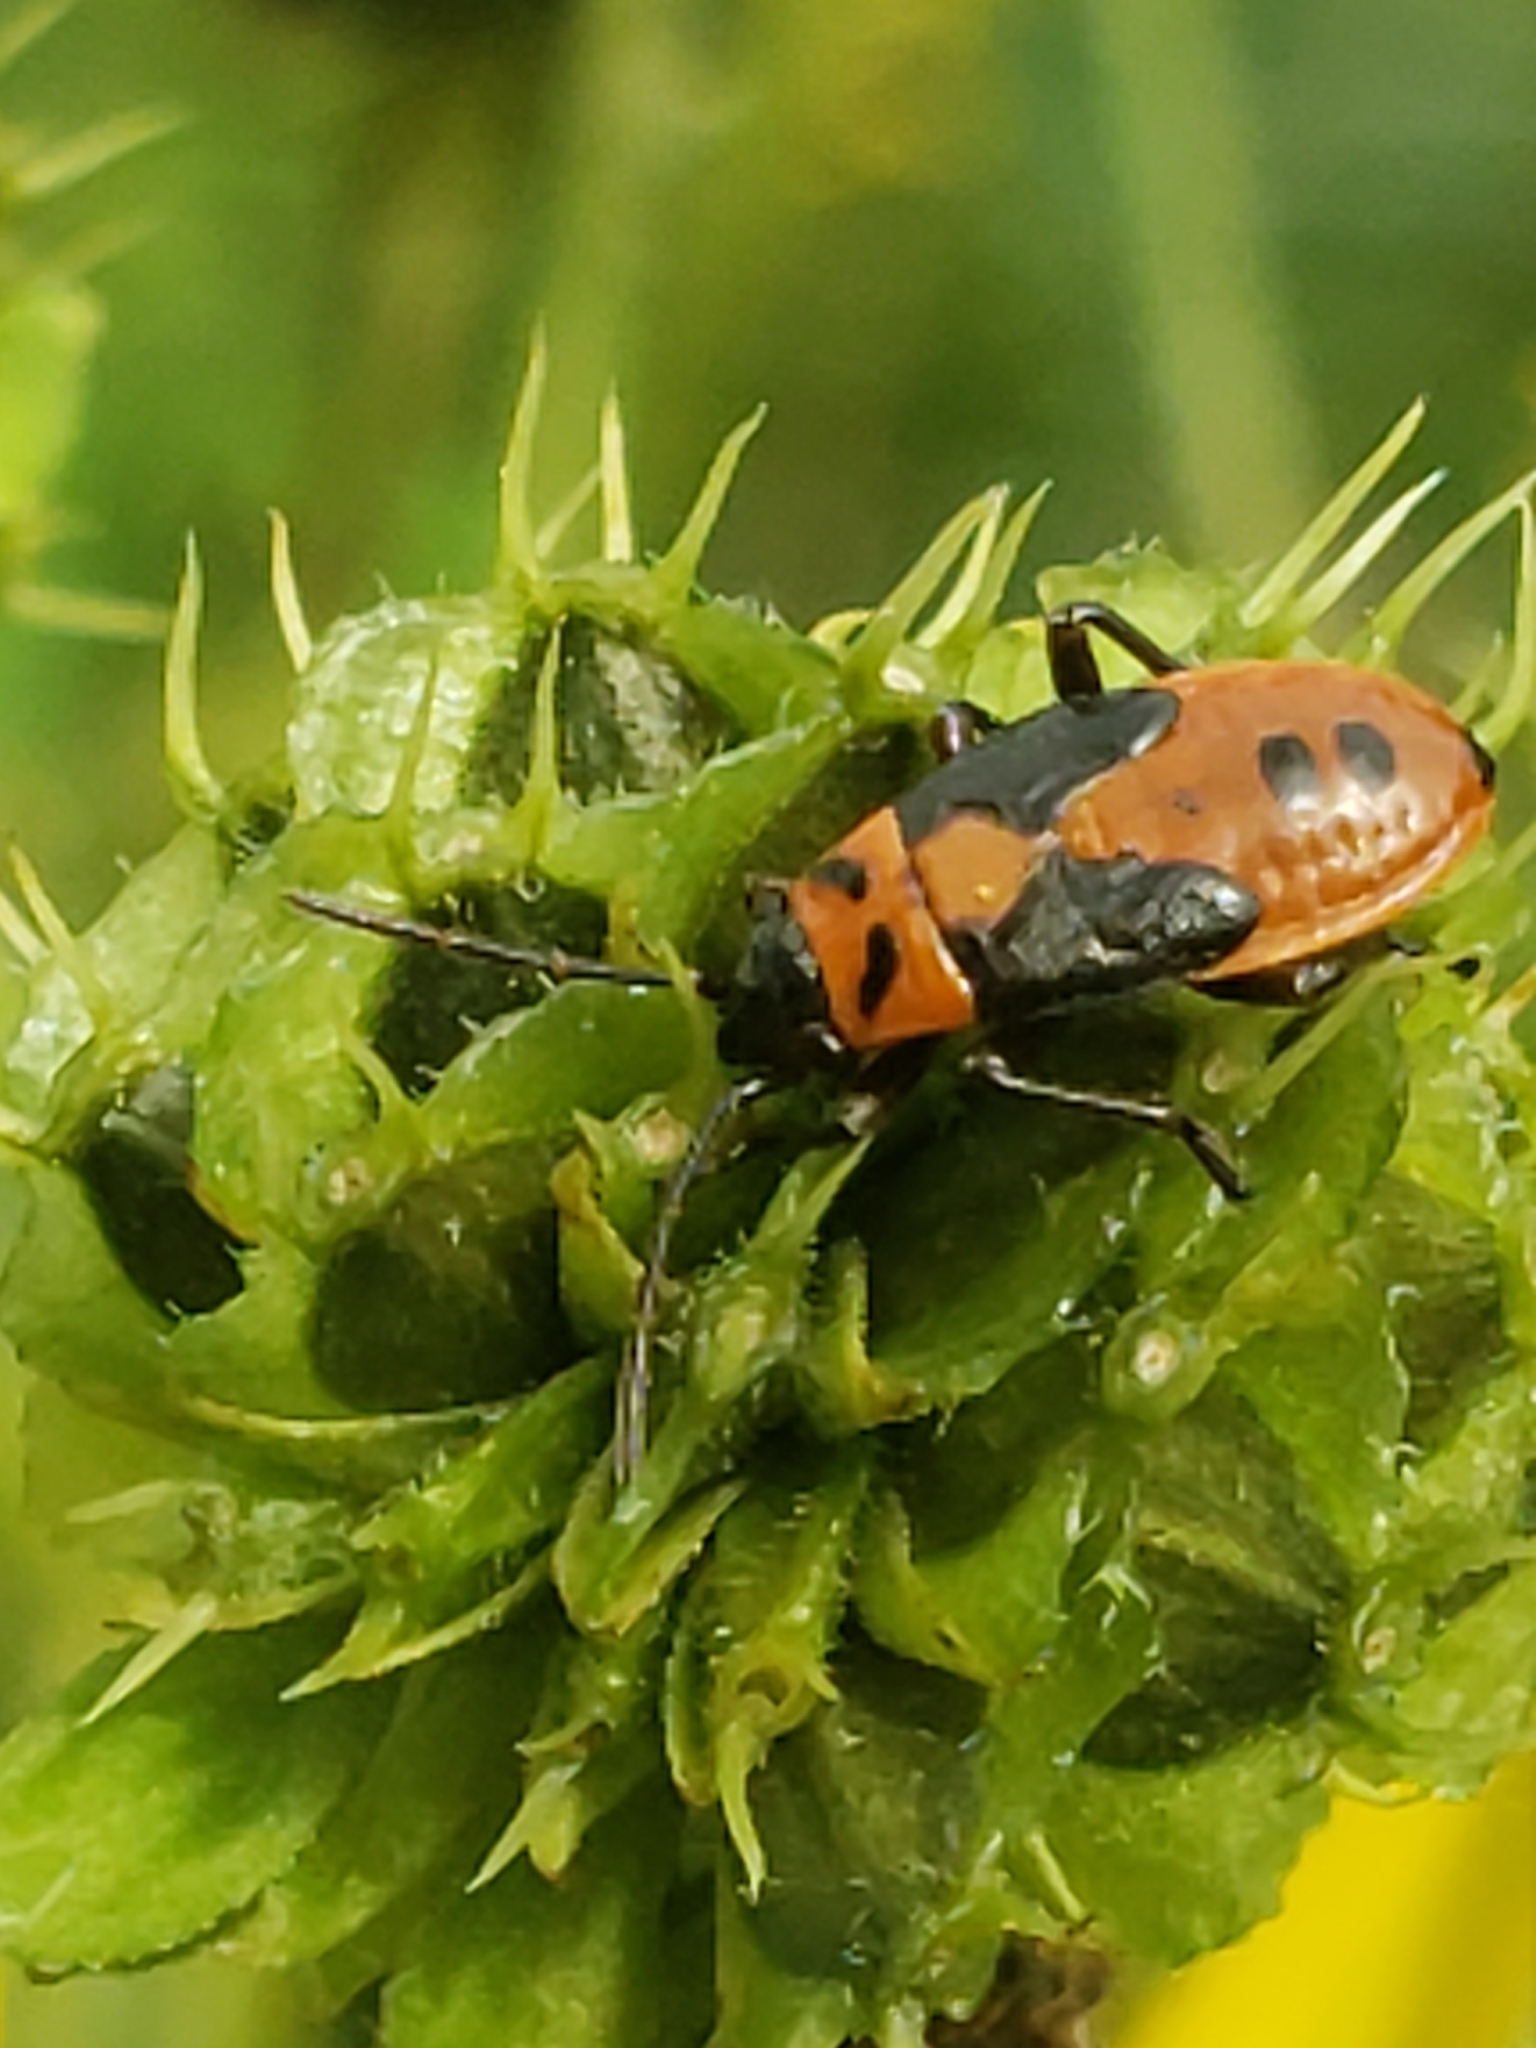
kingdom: Animalia
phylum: Arthropoda
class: Insecta
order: Hemiptera
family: Lygaeidae
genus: Lygaeus
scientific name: Lygaeus turcicus
